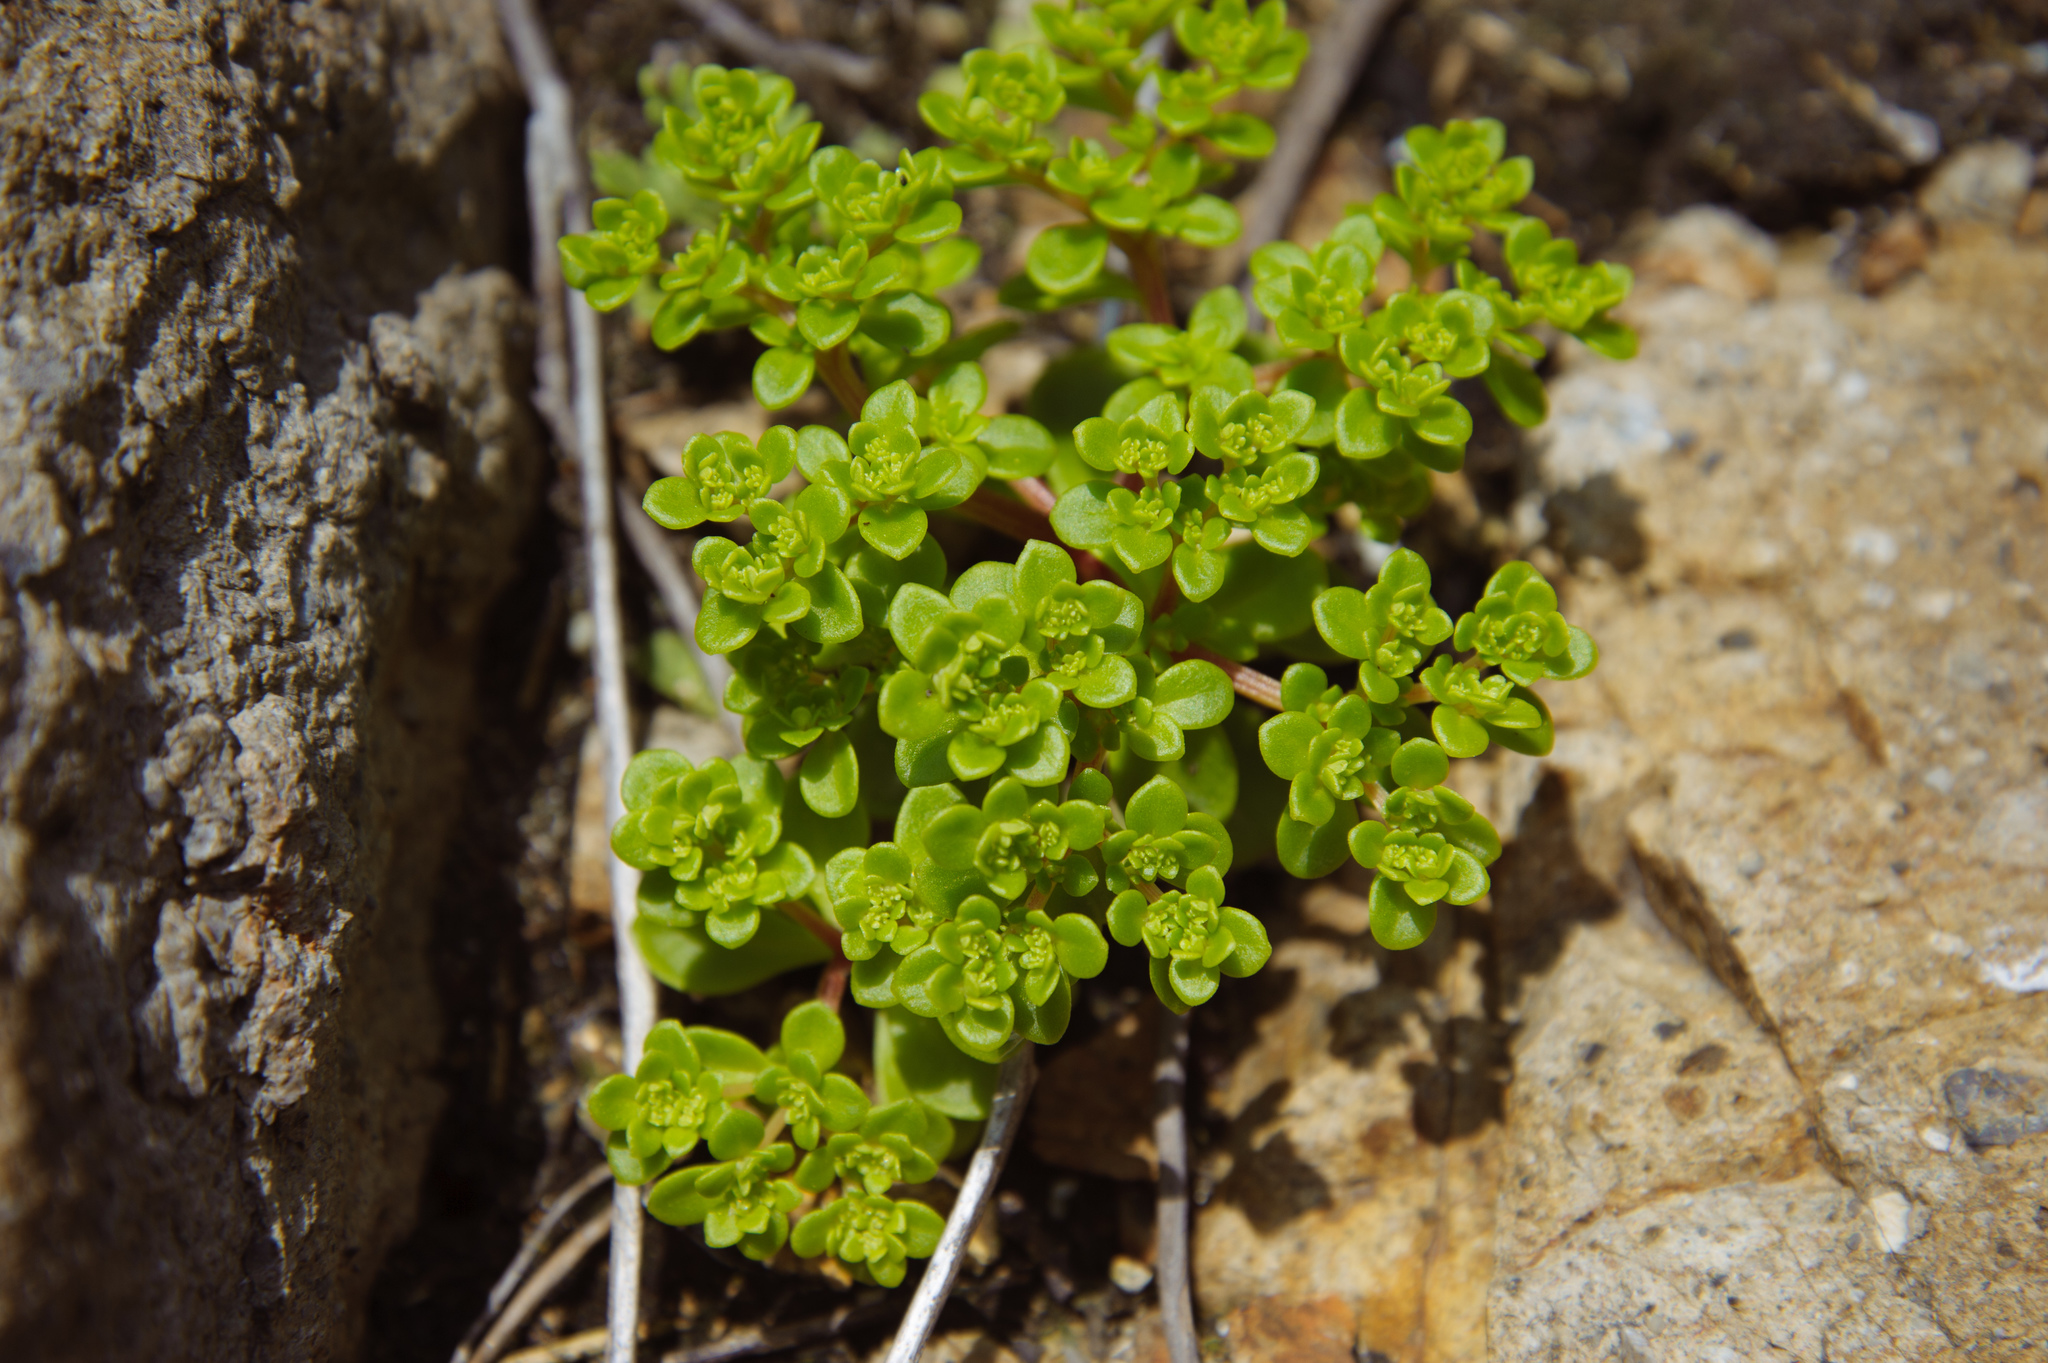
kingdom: Plantae
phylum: Tracheophyta
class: Magnoliopsida
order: Saxifragales
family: Crassulaceae
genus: Sedum
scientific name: Sedum formosanum
